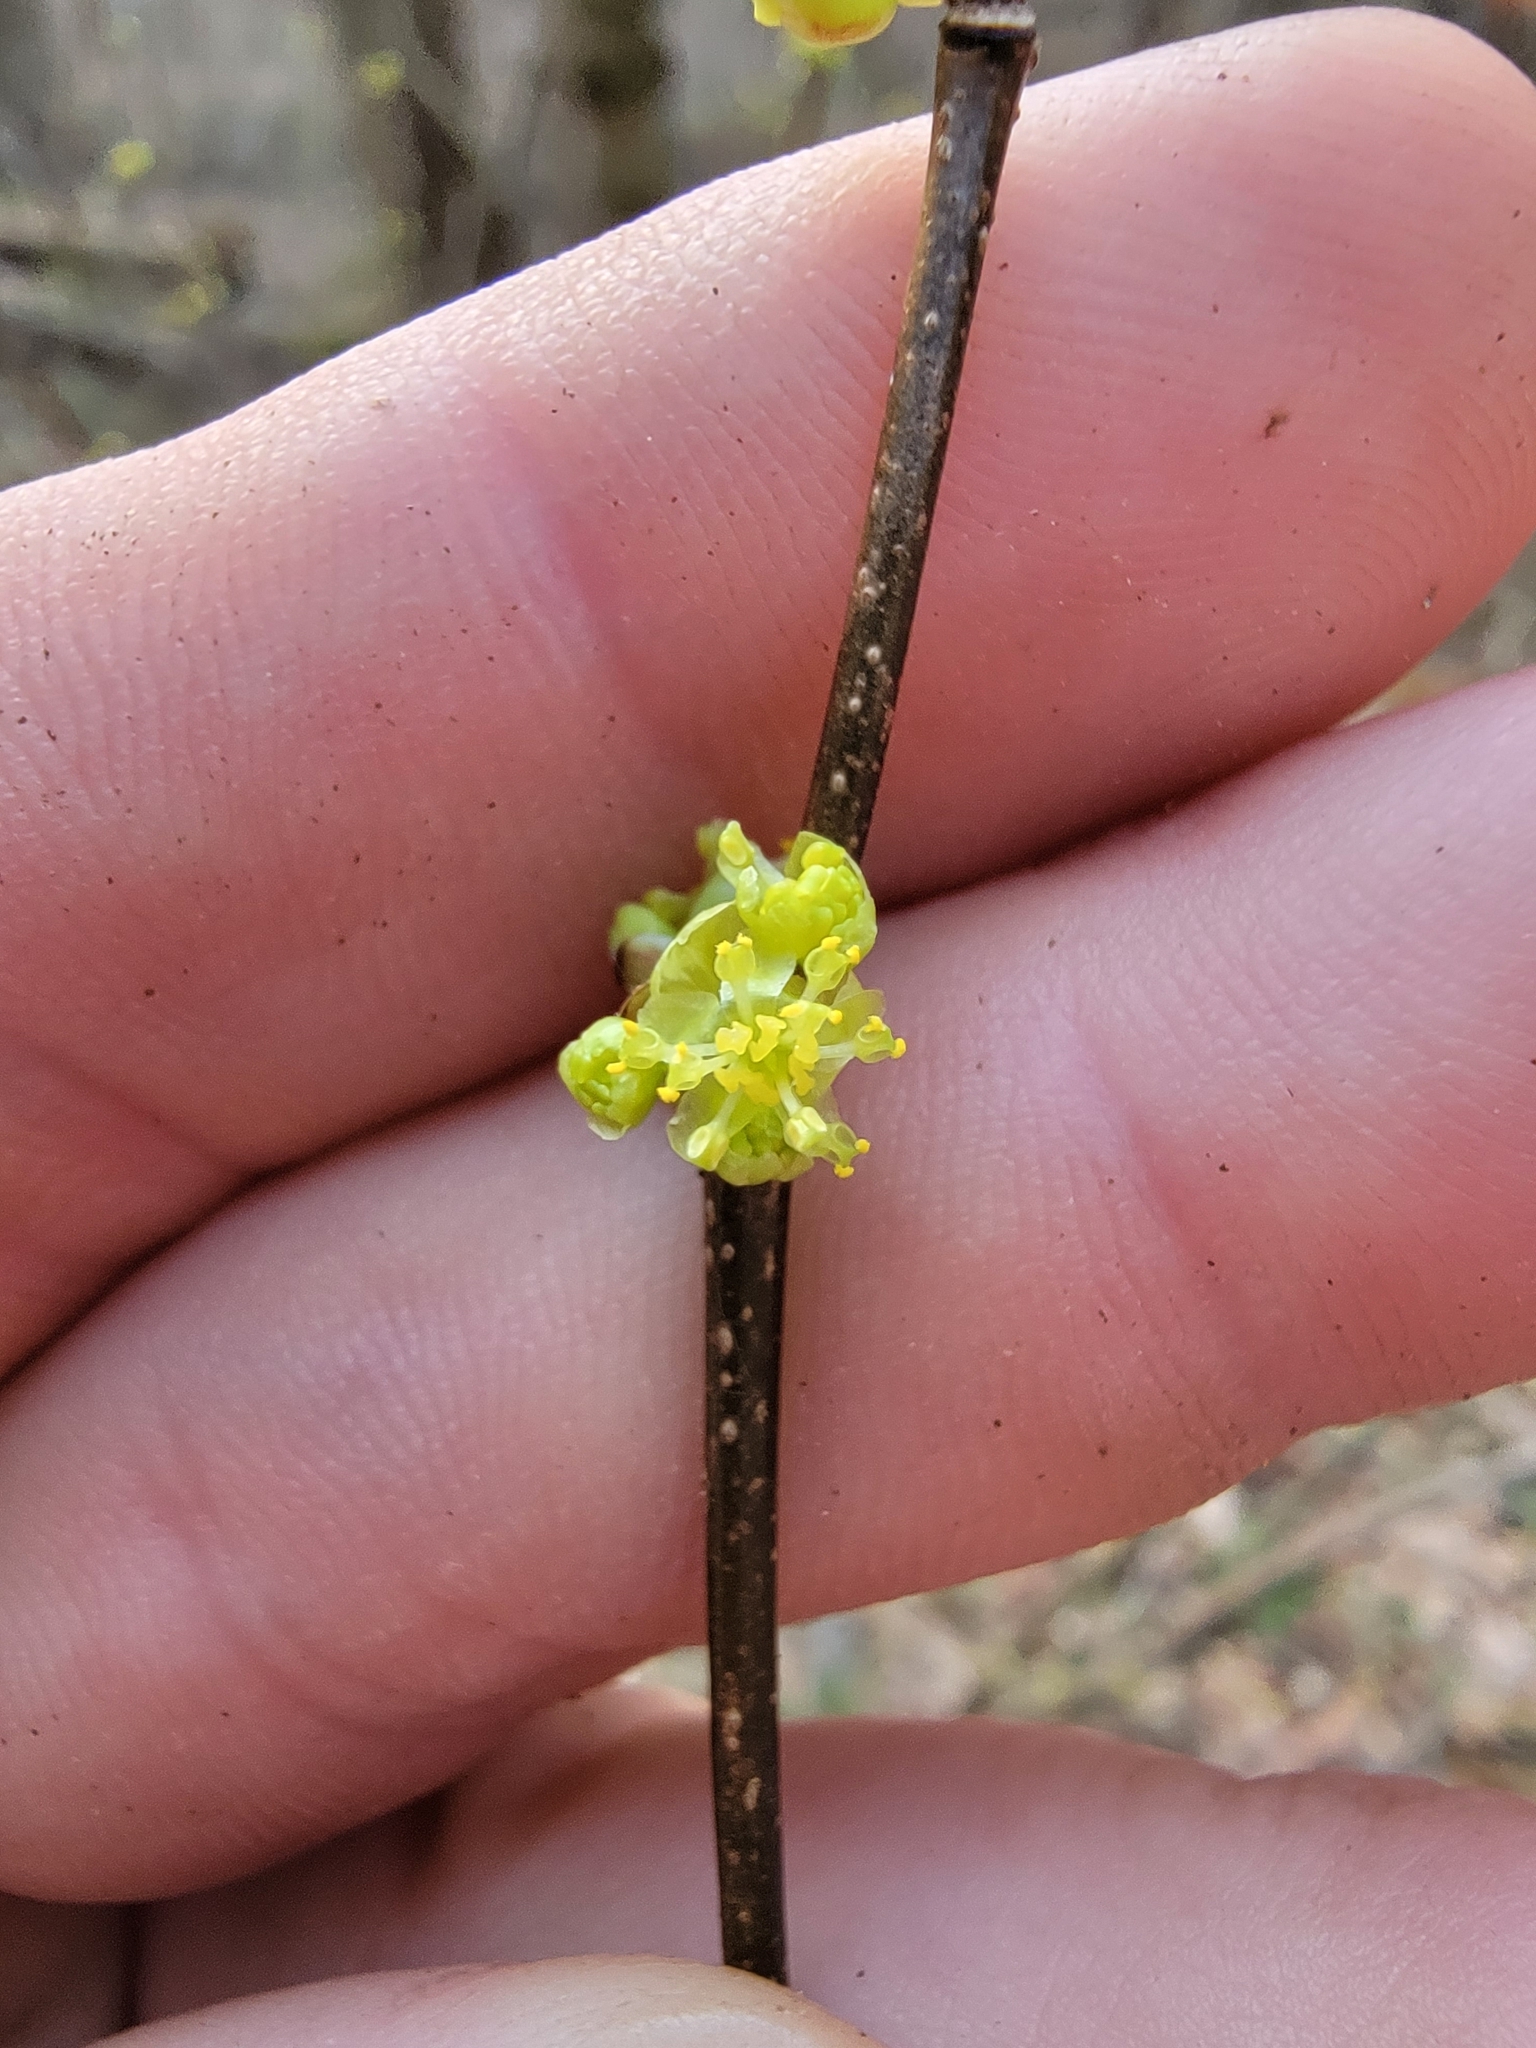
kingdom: Plantae
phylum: Tracheophyta
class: Magnoliopsida
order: Laurales
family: Lauraceae
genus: Lindera
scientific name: Lindera benzoin
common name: Spicebush
